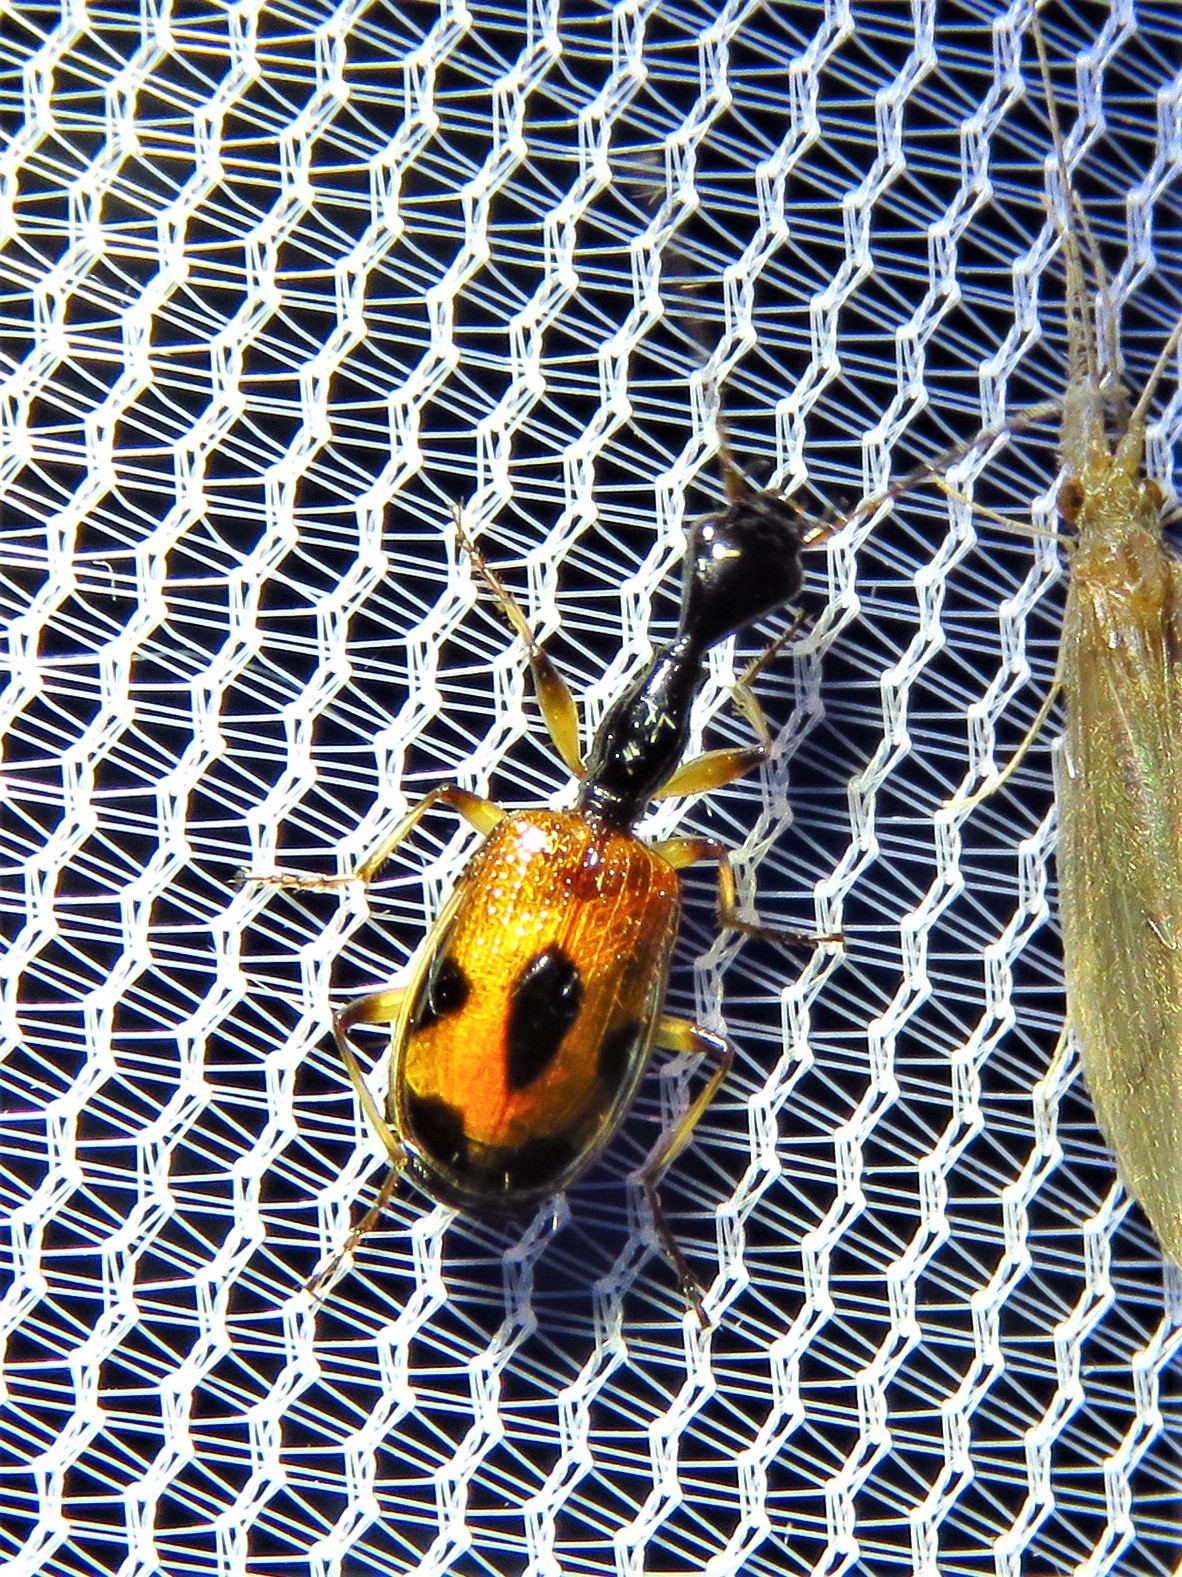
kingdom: Animalia
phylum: Arthropoda
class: Insecta
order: Coleoptera
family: Carabidae
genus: Colliuris
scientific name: Colliuris pensylvanica
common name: Long-necked ground beetle
